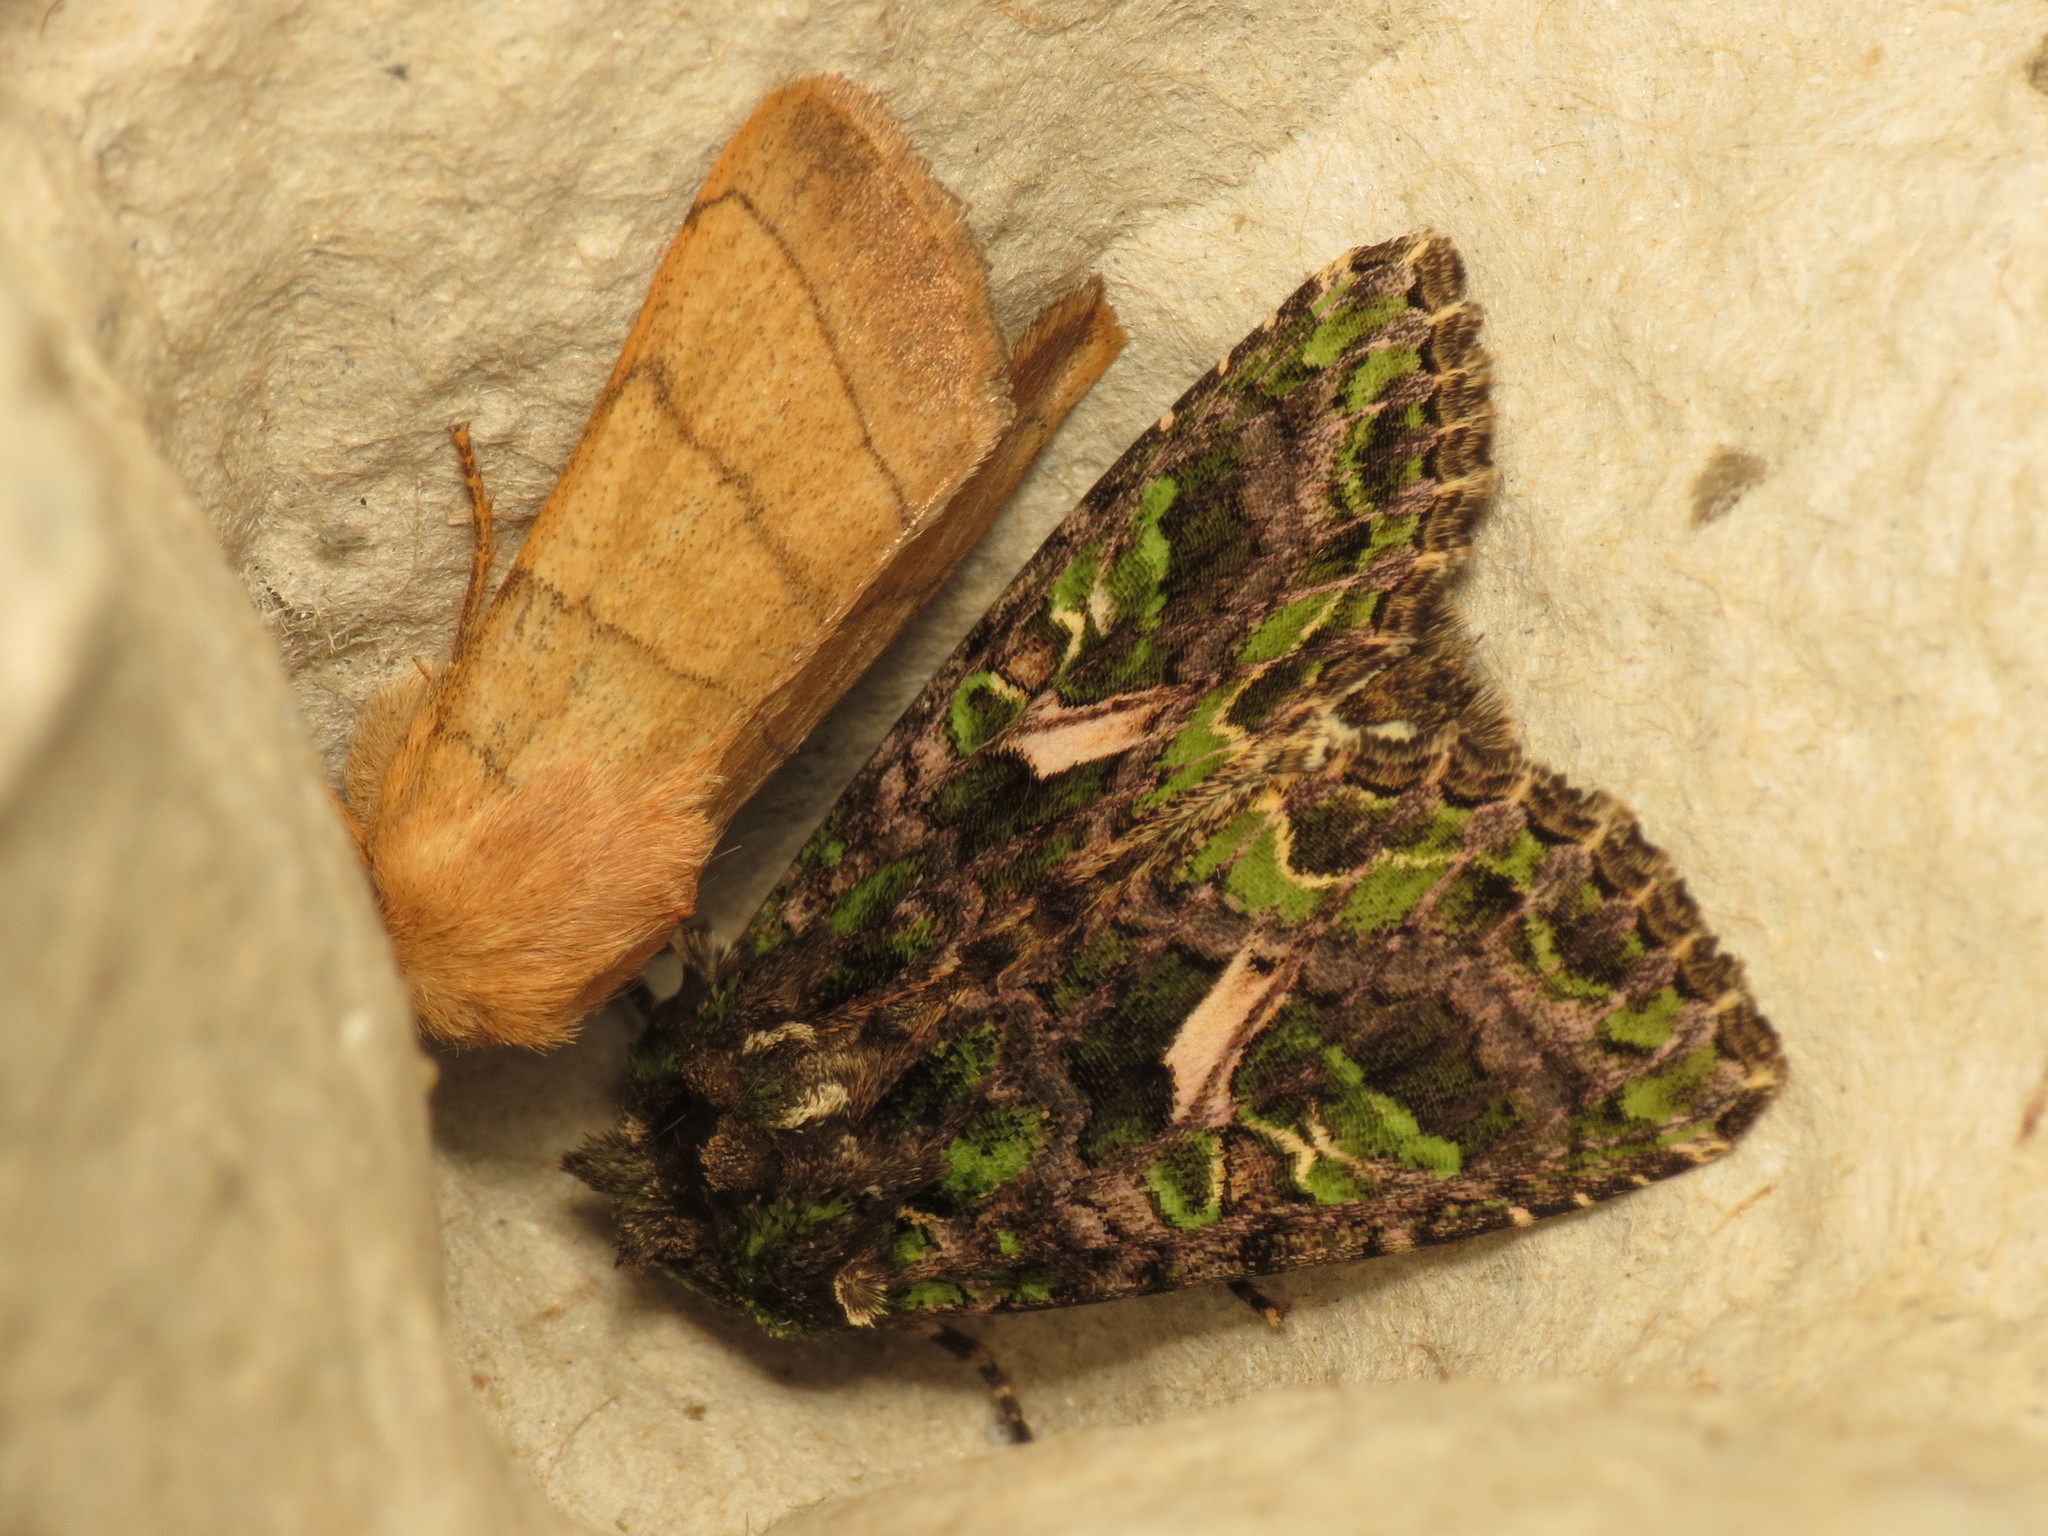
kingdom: Animalia
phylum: Arthropoda
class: Insecta
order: Lepidoptera
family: Noctuidae
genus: Trachea
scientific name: Trachea atriplicis
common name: Orache moth
